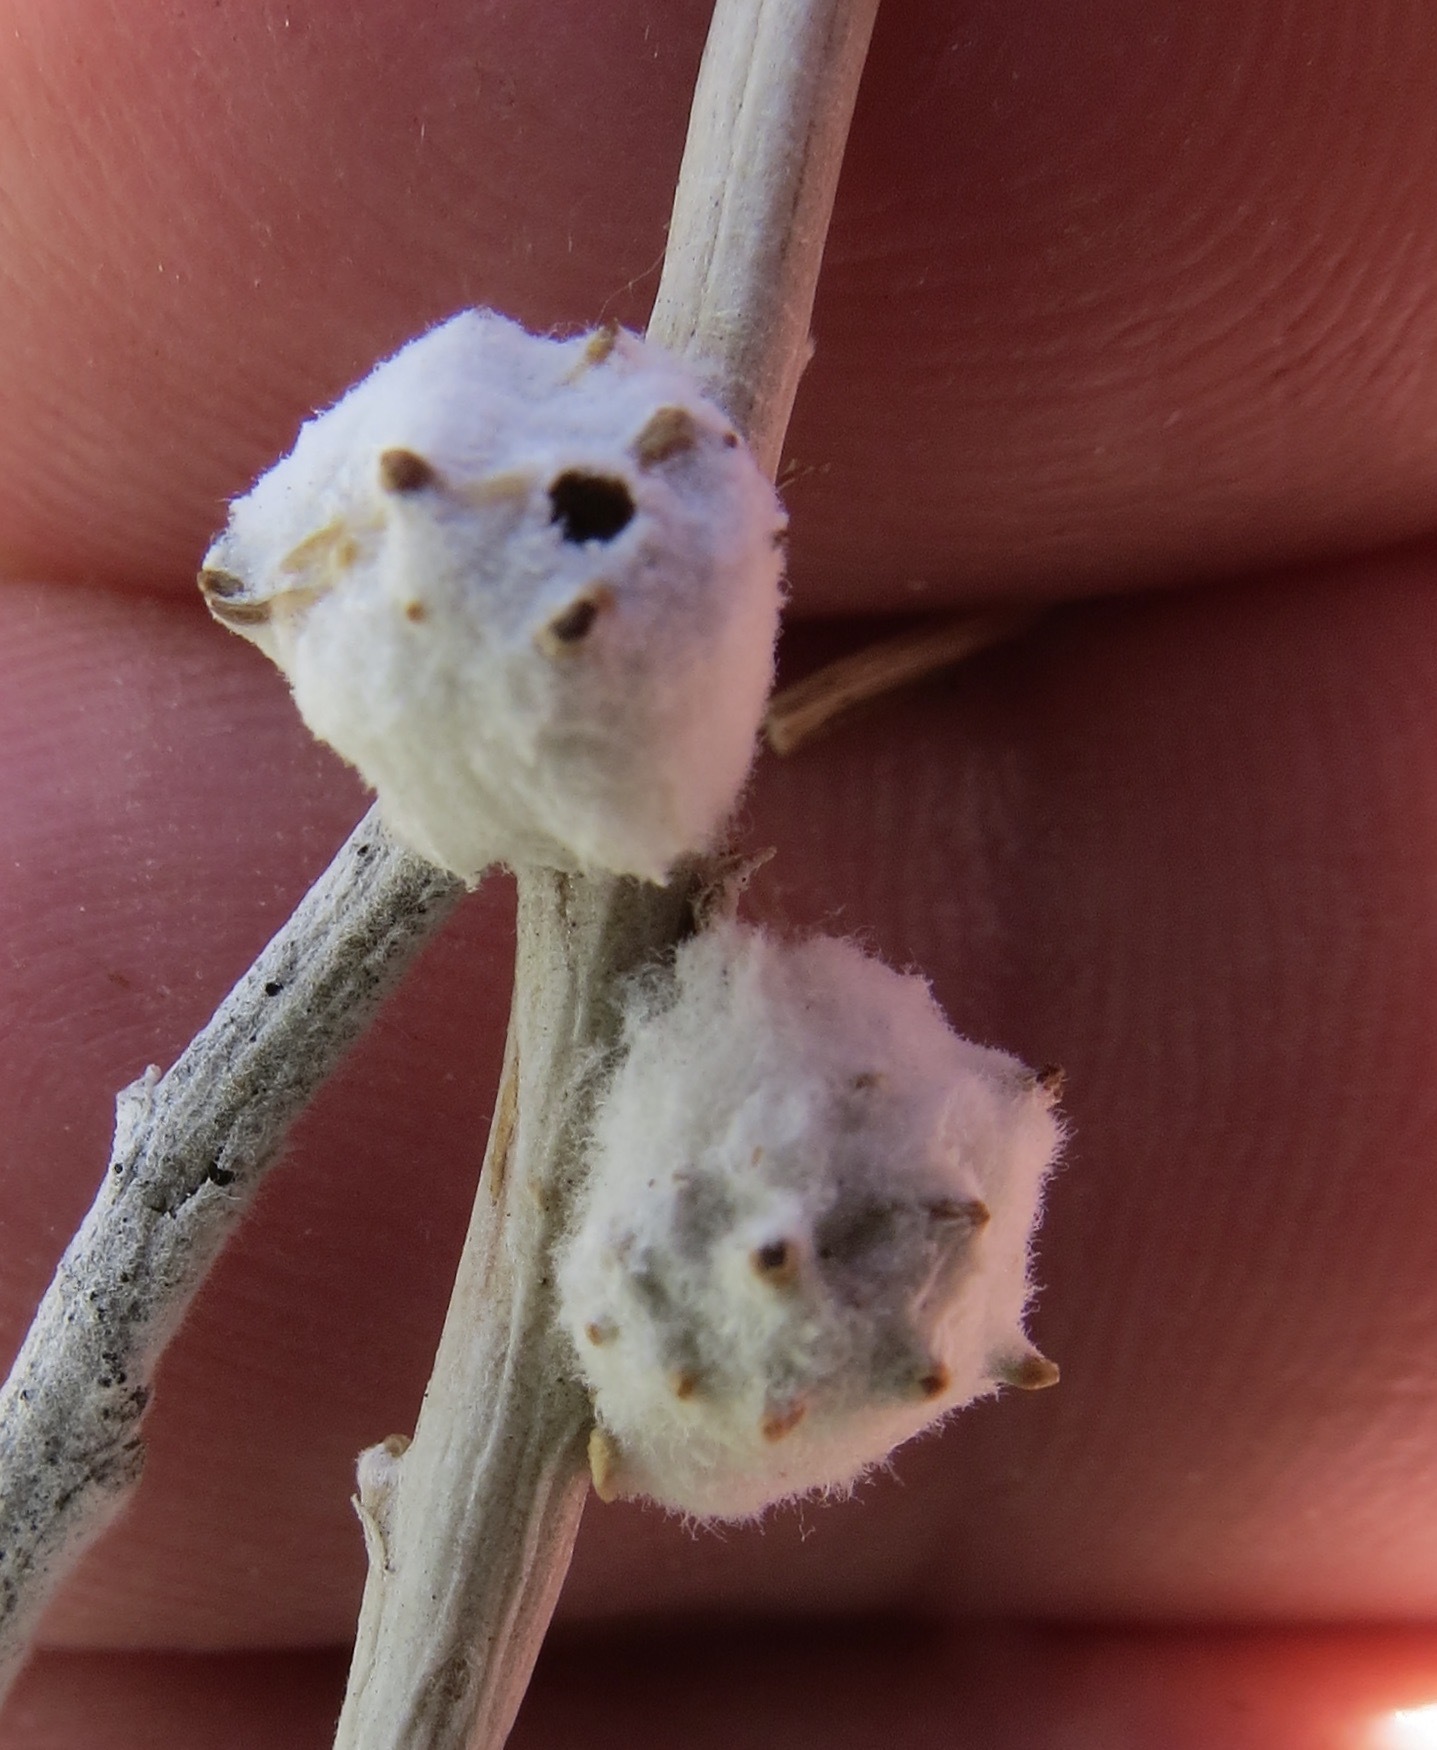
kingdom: Animalia
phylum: Arthropoda
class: Insecta
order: Diptera
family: Cecidomyiidae
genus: Rhopalomyia
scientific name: Rhopalomyia bigeloviae
